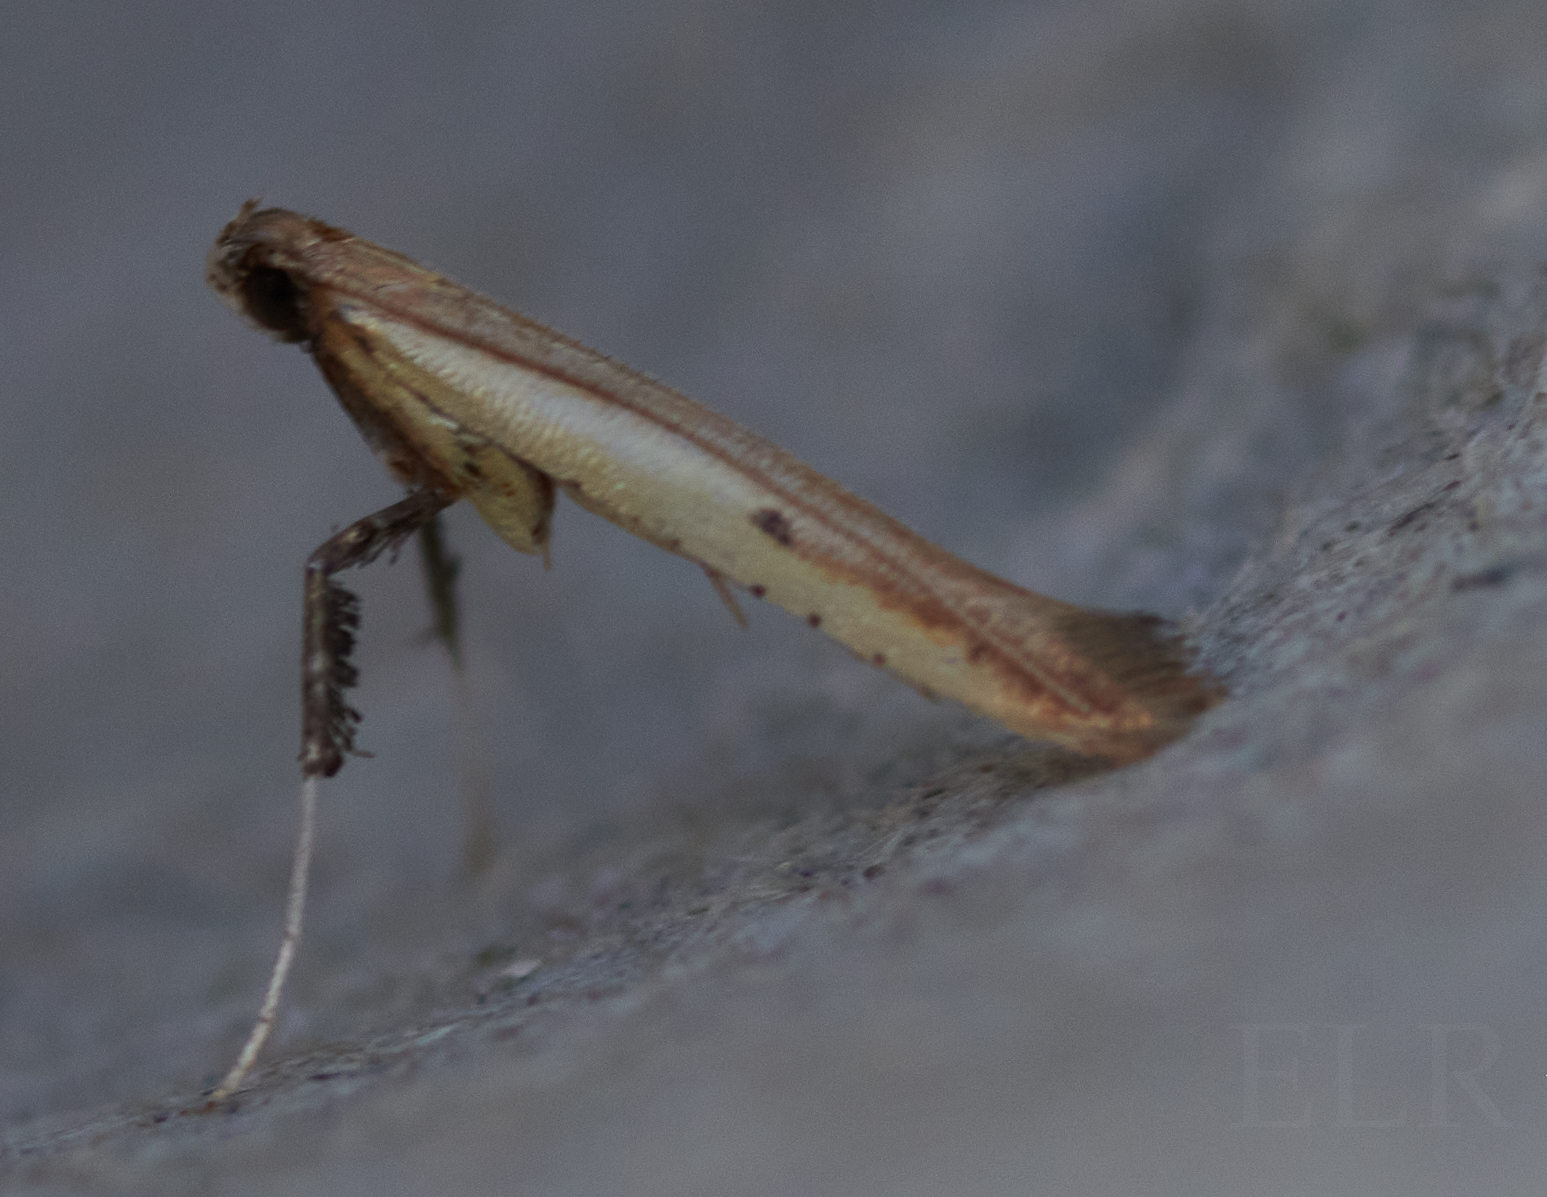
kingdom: Animalia
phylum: Arthropoda
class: Insecta
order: Lepidoptera
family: Gracillariidae
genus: Caloptilia
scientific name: Caloptilia violacella
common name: Tick-trefoil caloptilia moth
